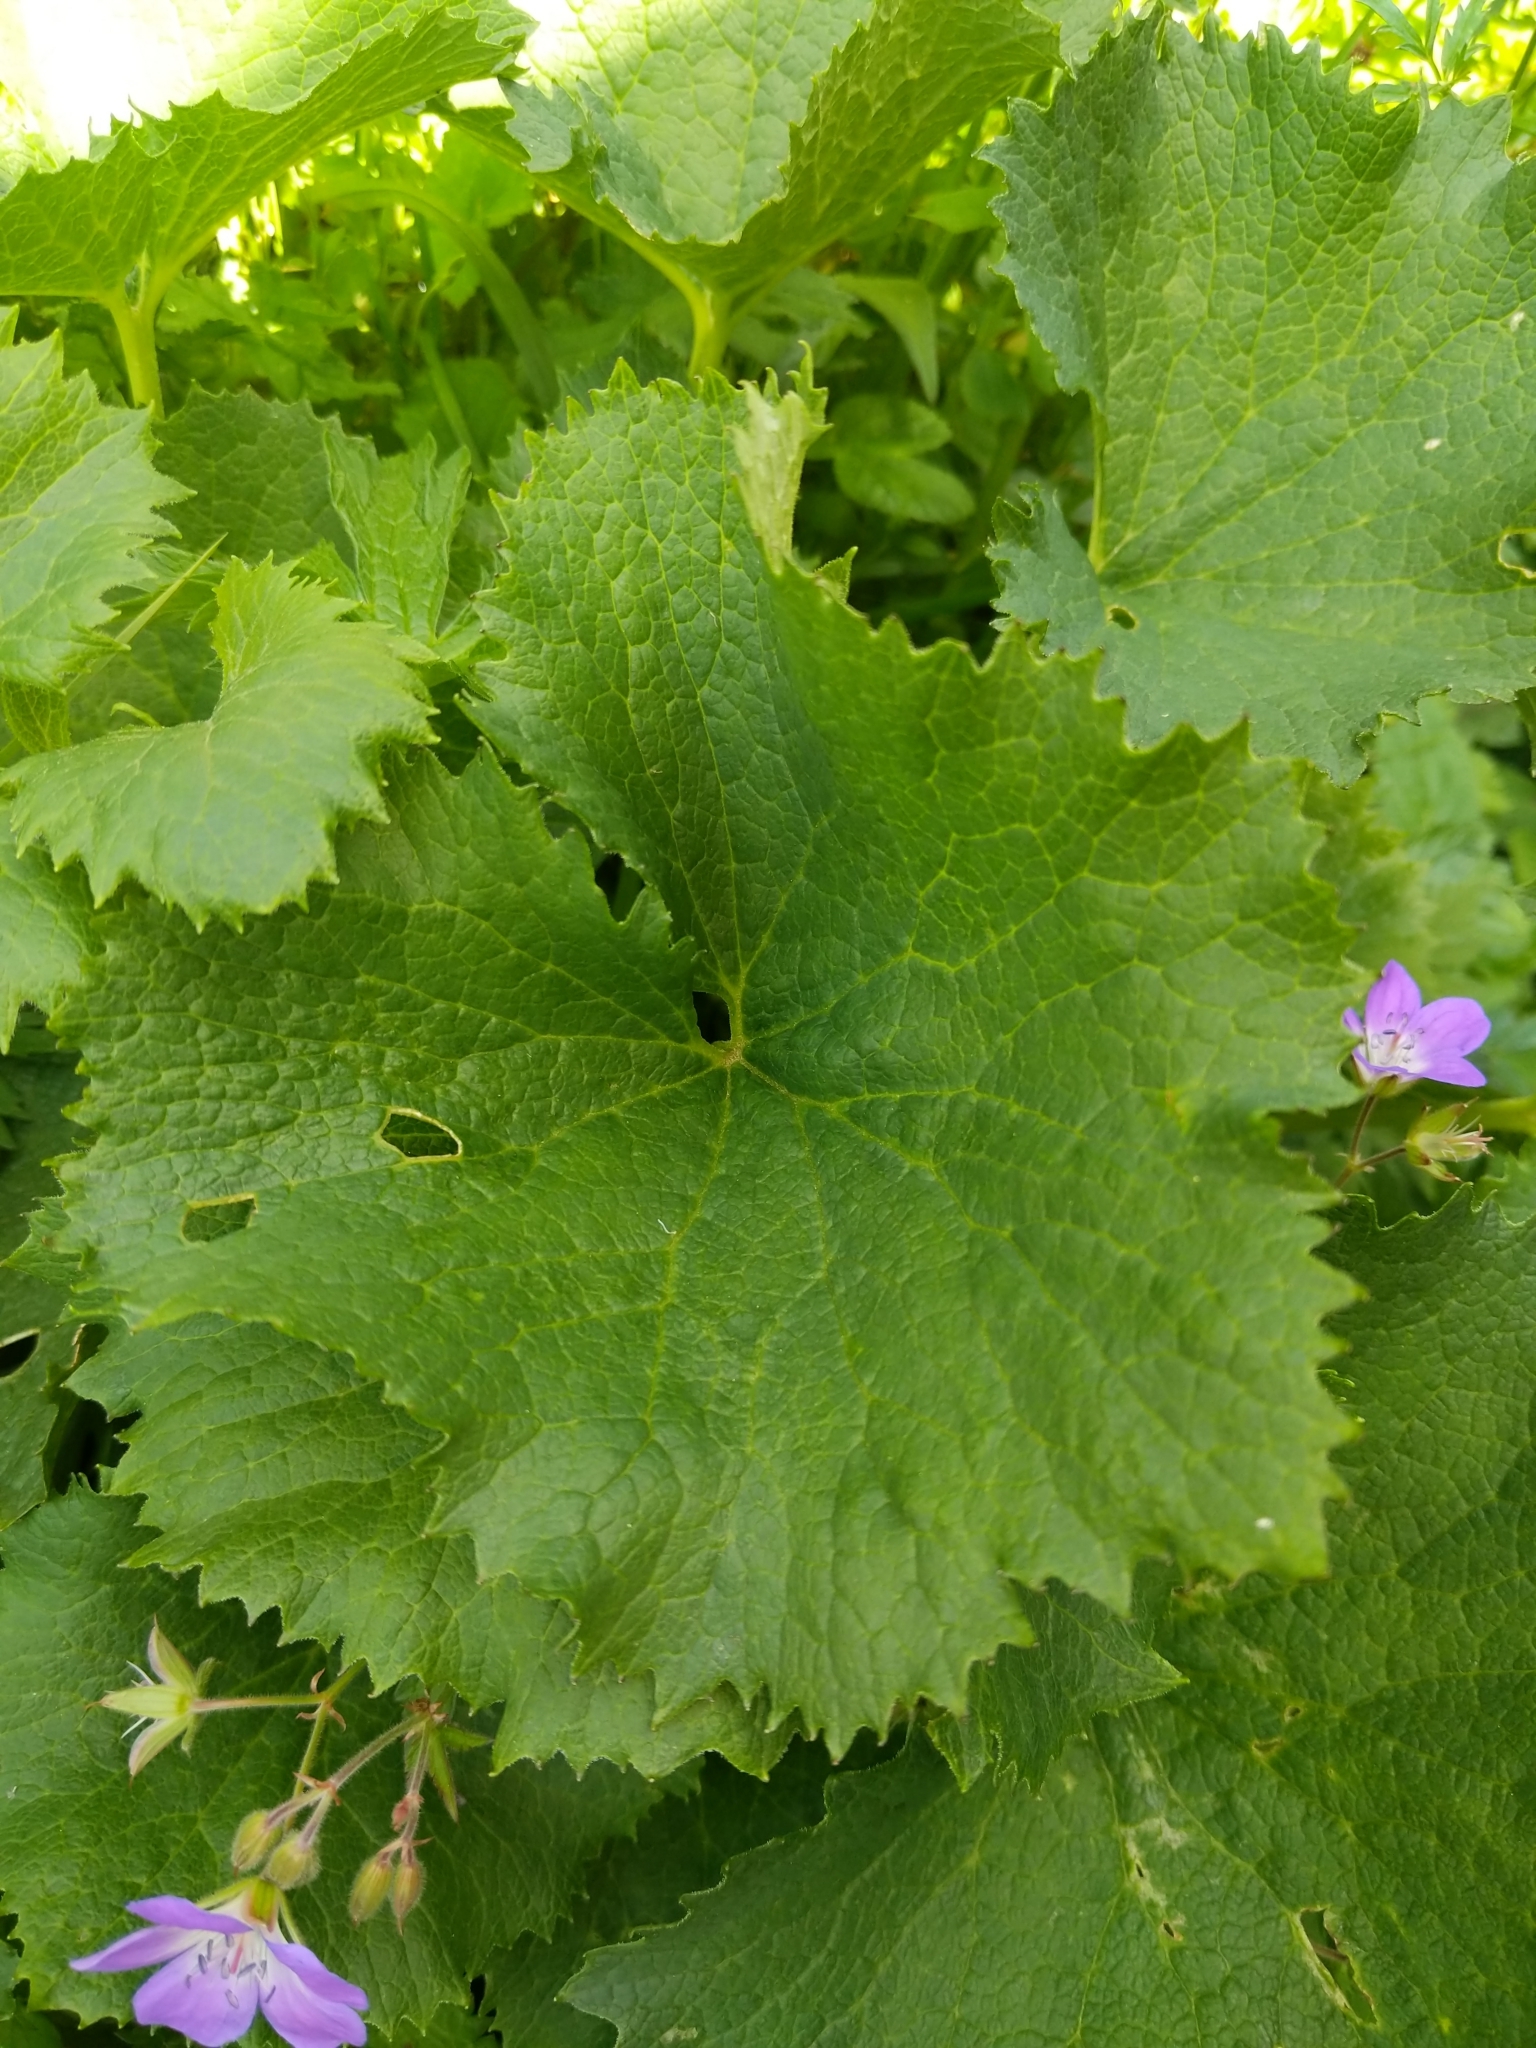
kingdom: Plantae
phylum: Tracheophyta
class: Magnoliopsida
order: Asterales
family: Asteraceae
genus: Adenostyles
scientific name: Adenostyles alliariae
